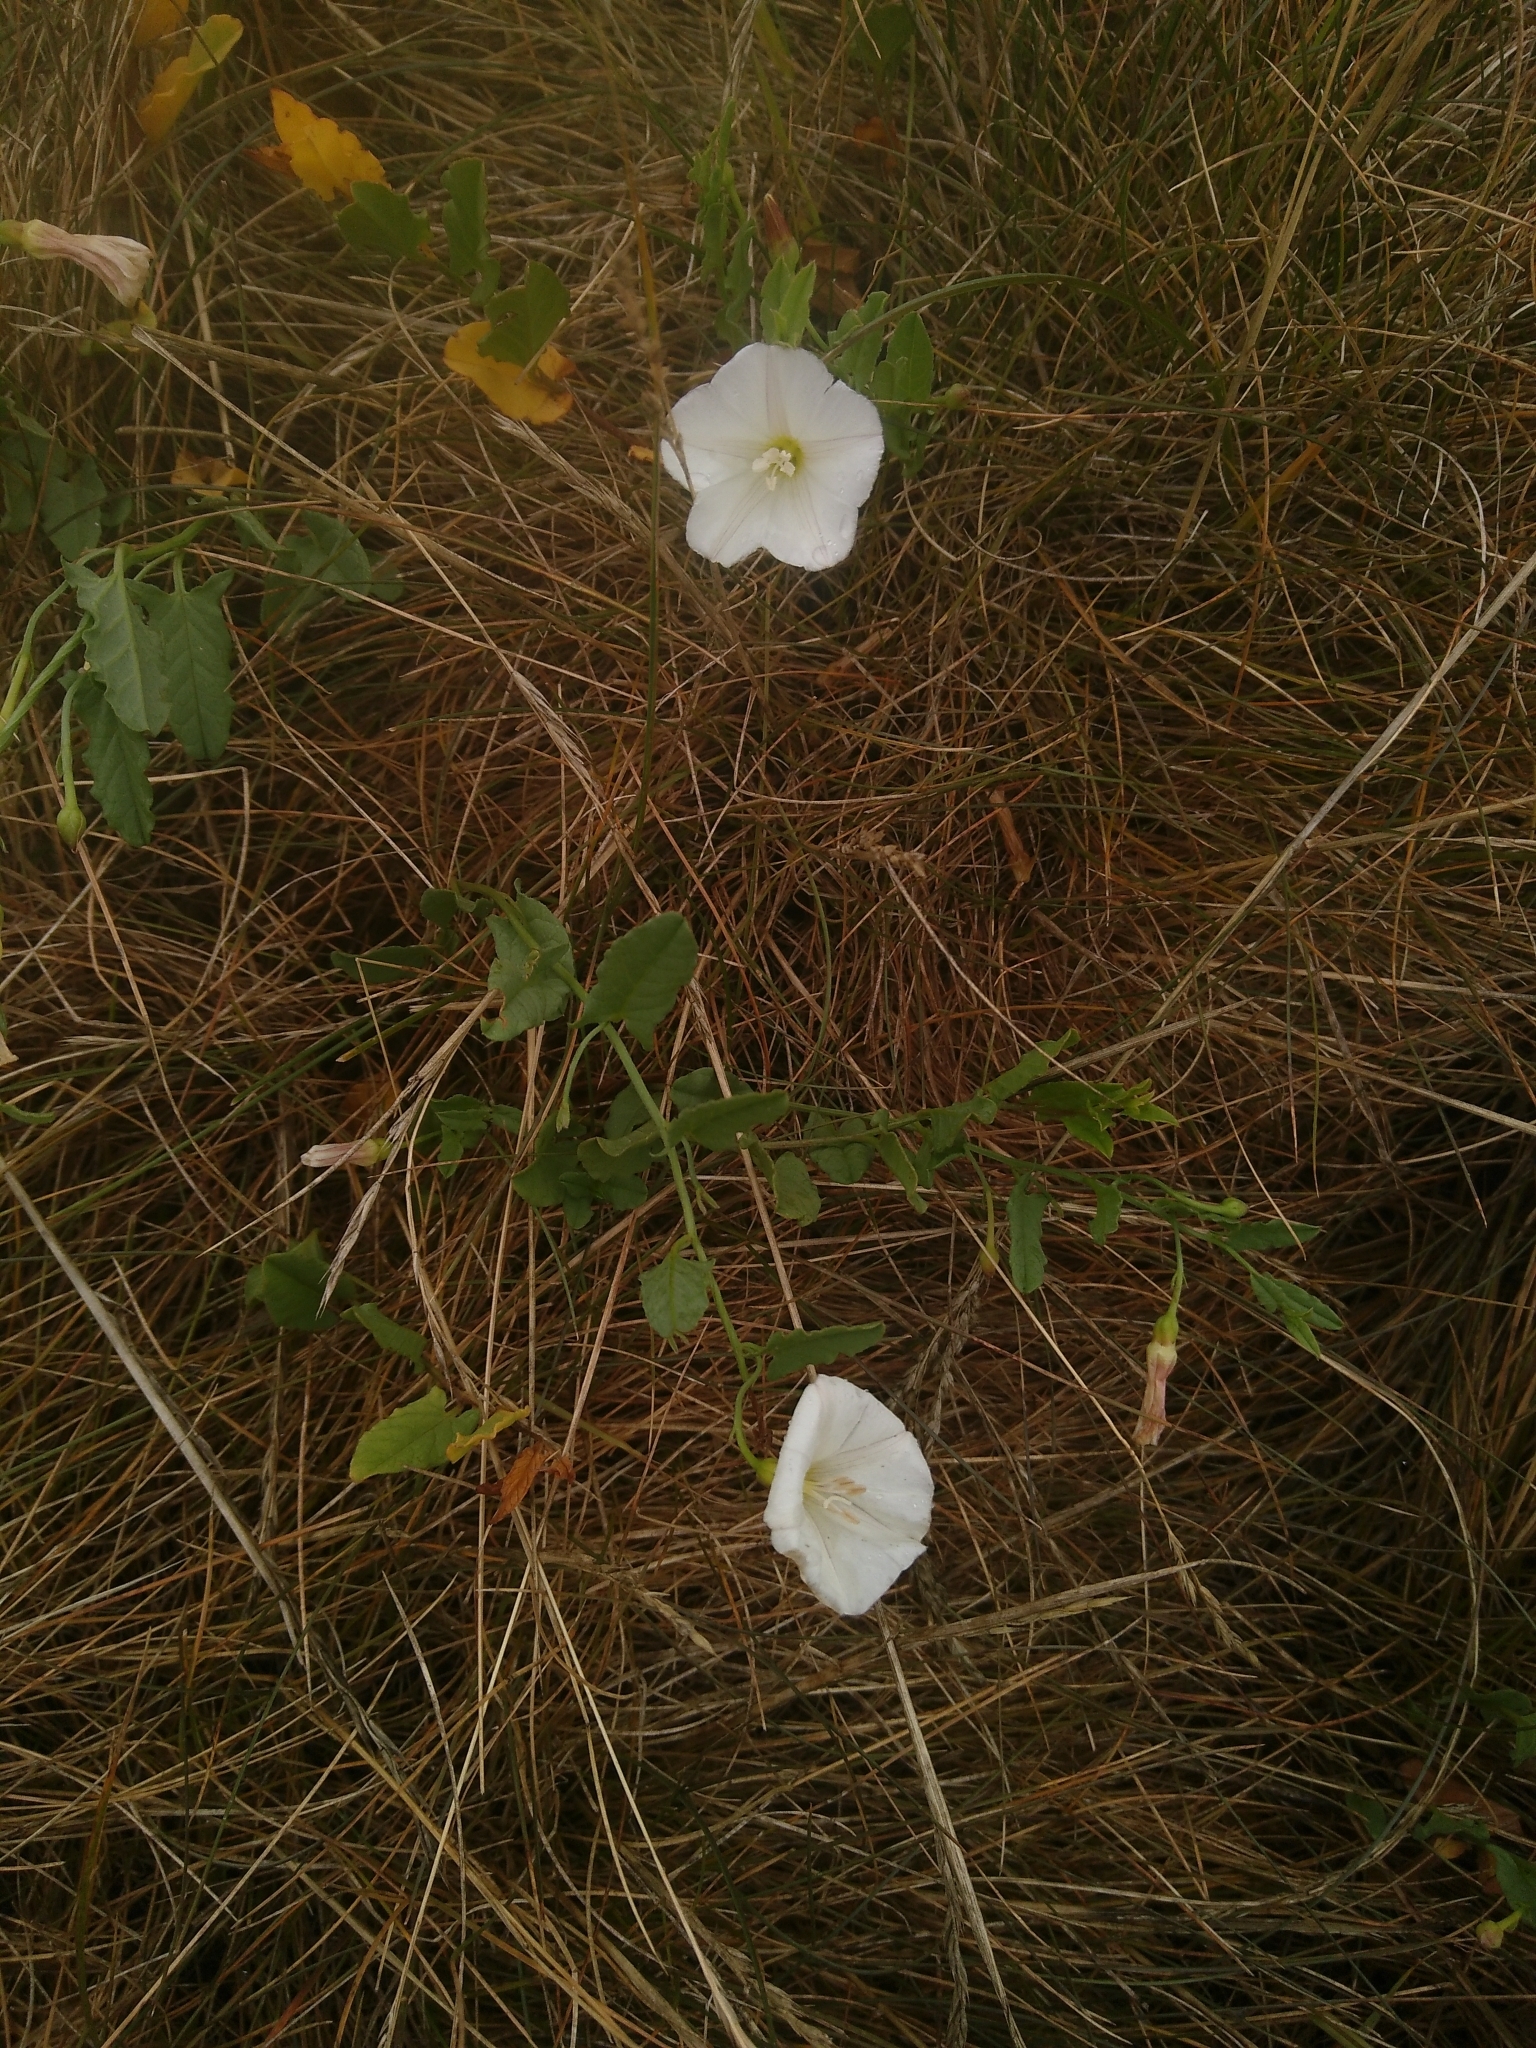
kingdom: Plantae
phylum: Tracheophyta
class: Magnoliopsida
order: Solanales
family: Convolvulaceae
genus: Convolvulus
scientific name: Convolvulus arvensis
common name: Field bindweed
